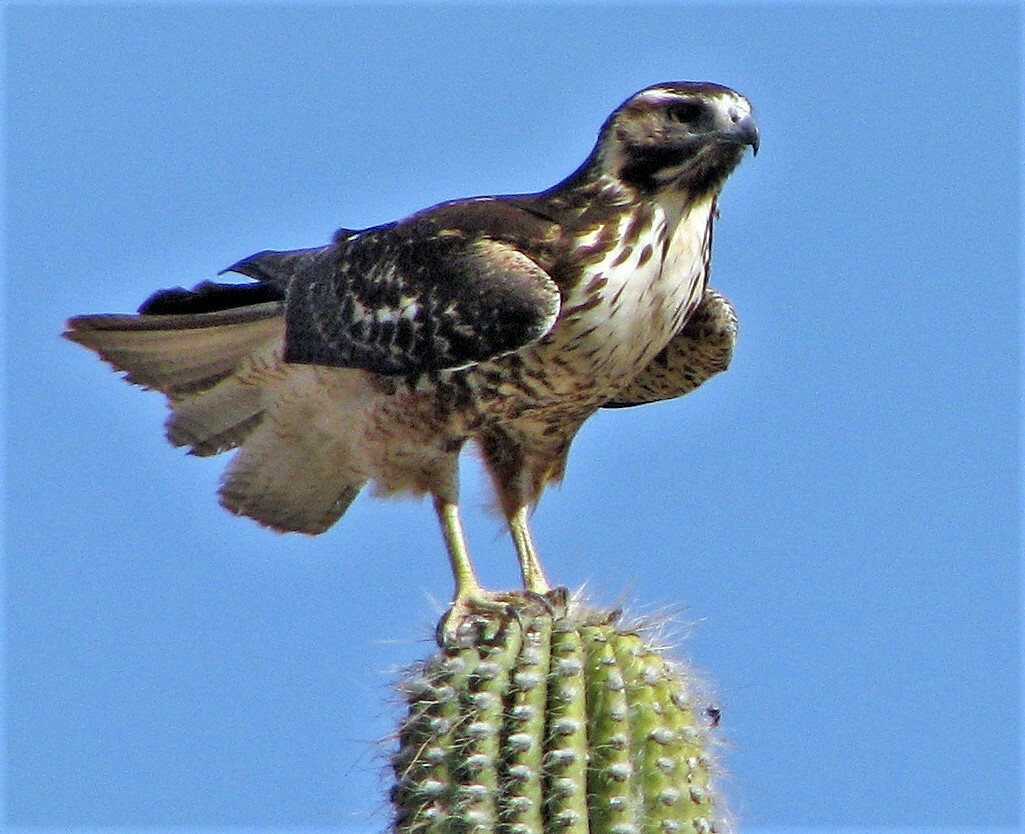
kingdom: Animalia
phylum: Chordata
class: Aves
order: Accipitriformes
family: Accipitridae
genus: Buteo
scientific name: Buteo polyosoma
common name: Variable hawk
